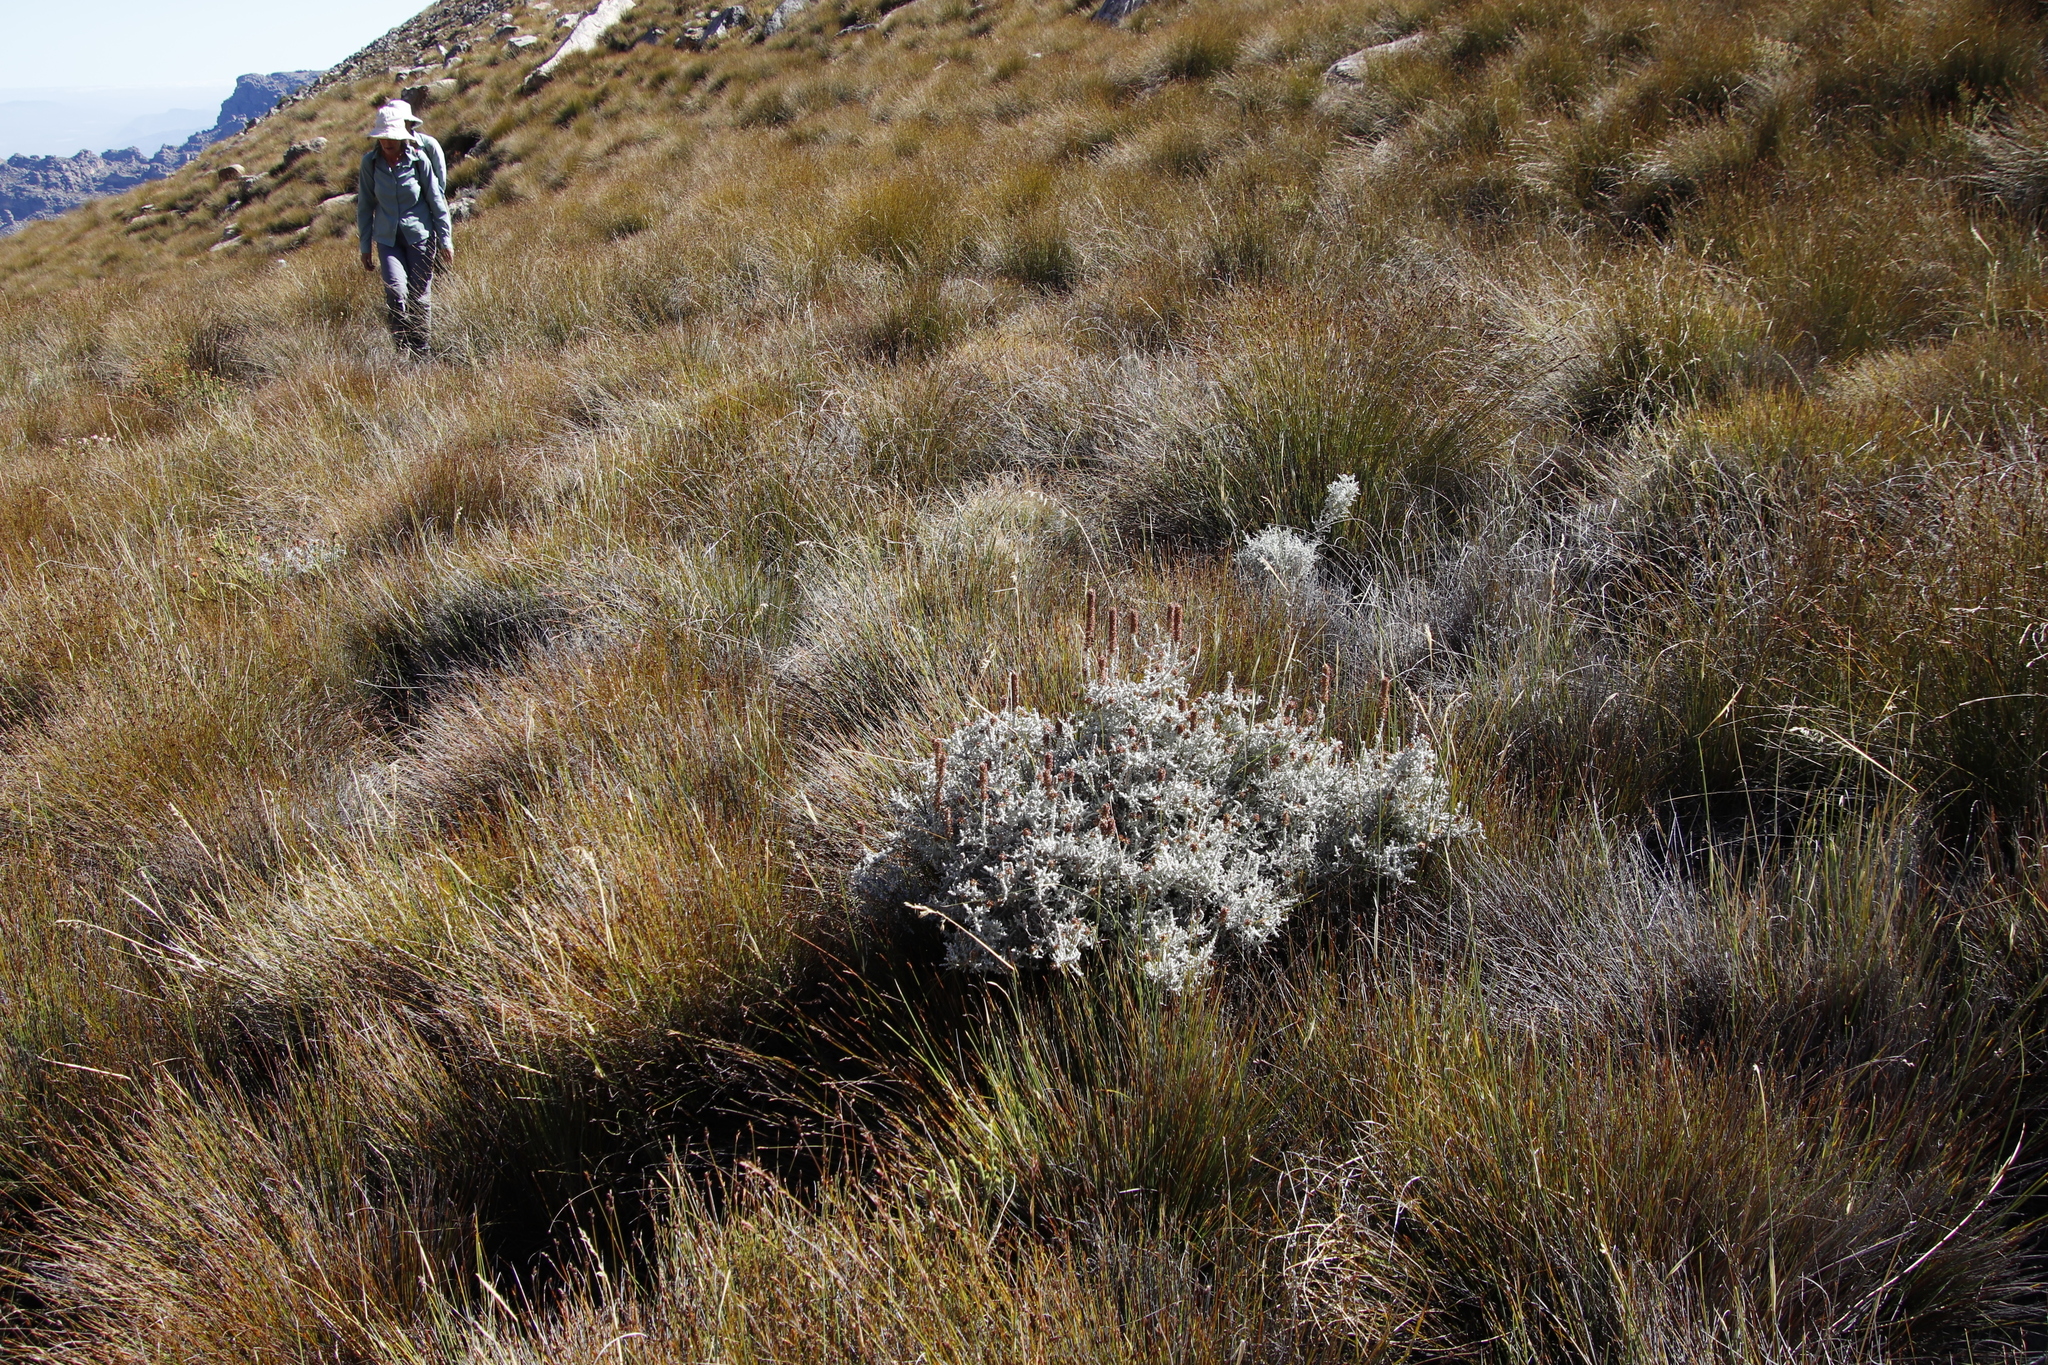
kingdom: Plantae
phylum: Tracheophyta
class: Magnoliopsida
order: Asterales
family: Asteraceae
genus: Seriphium
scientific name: Seriphium plumosum
